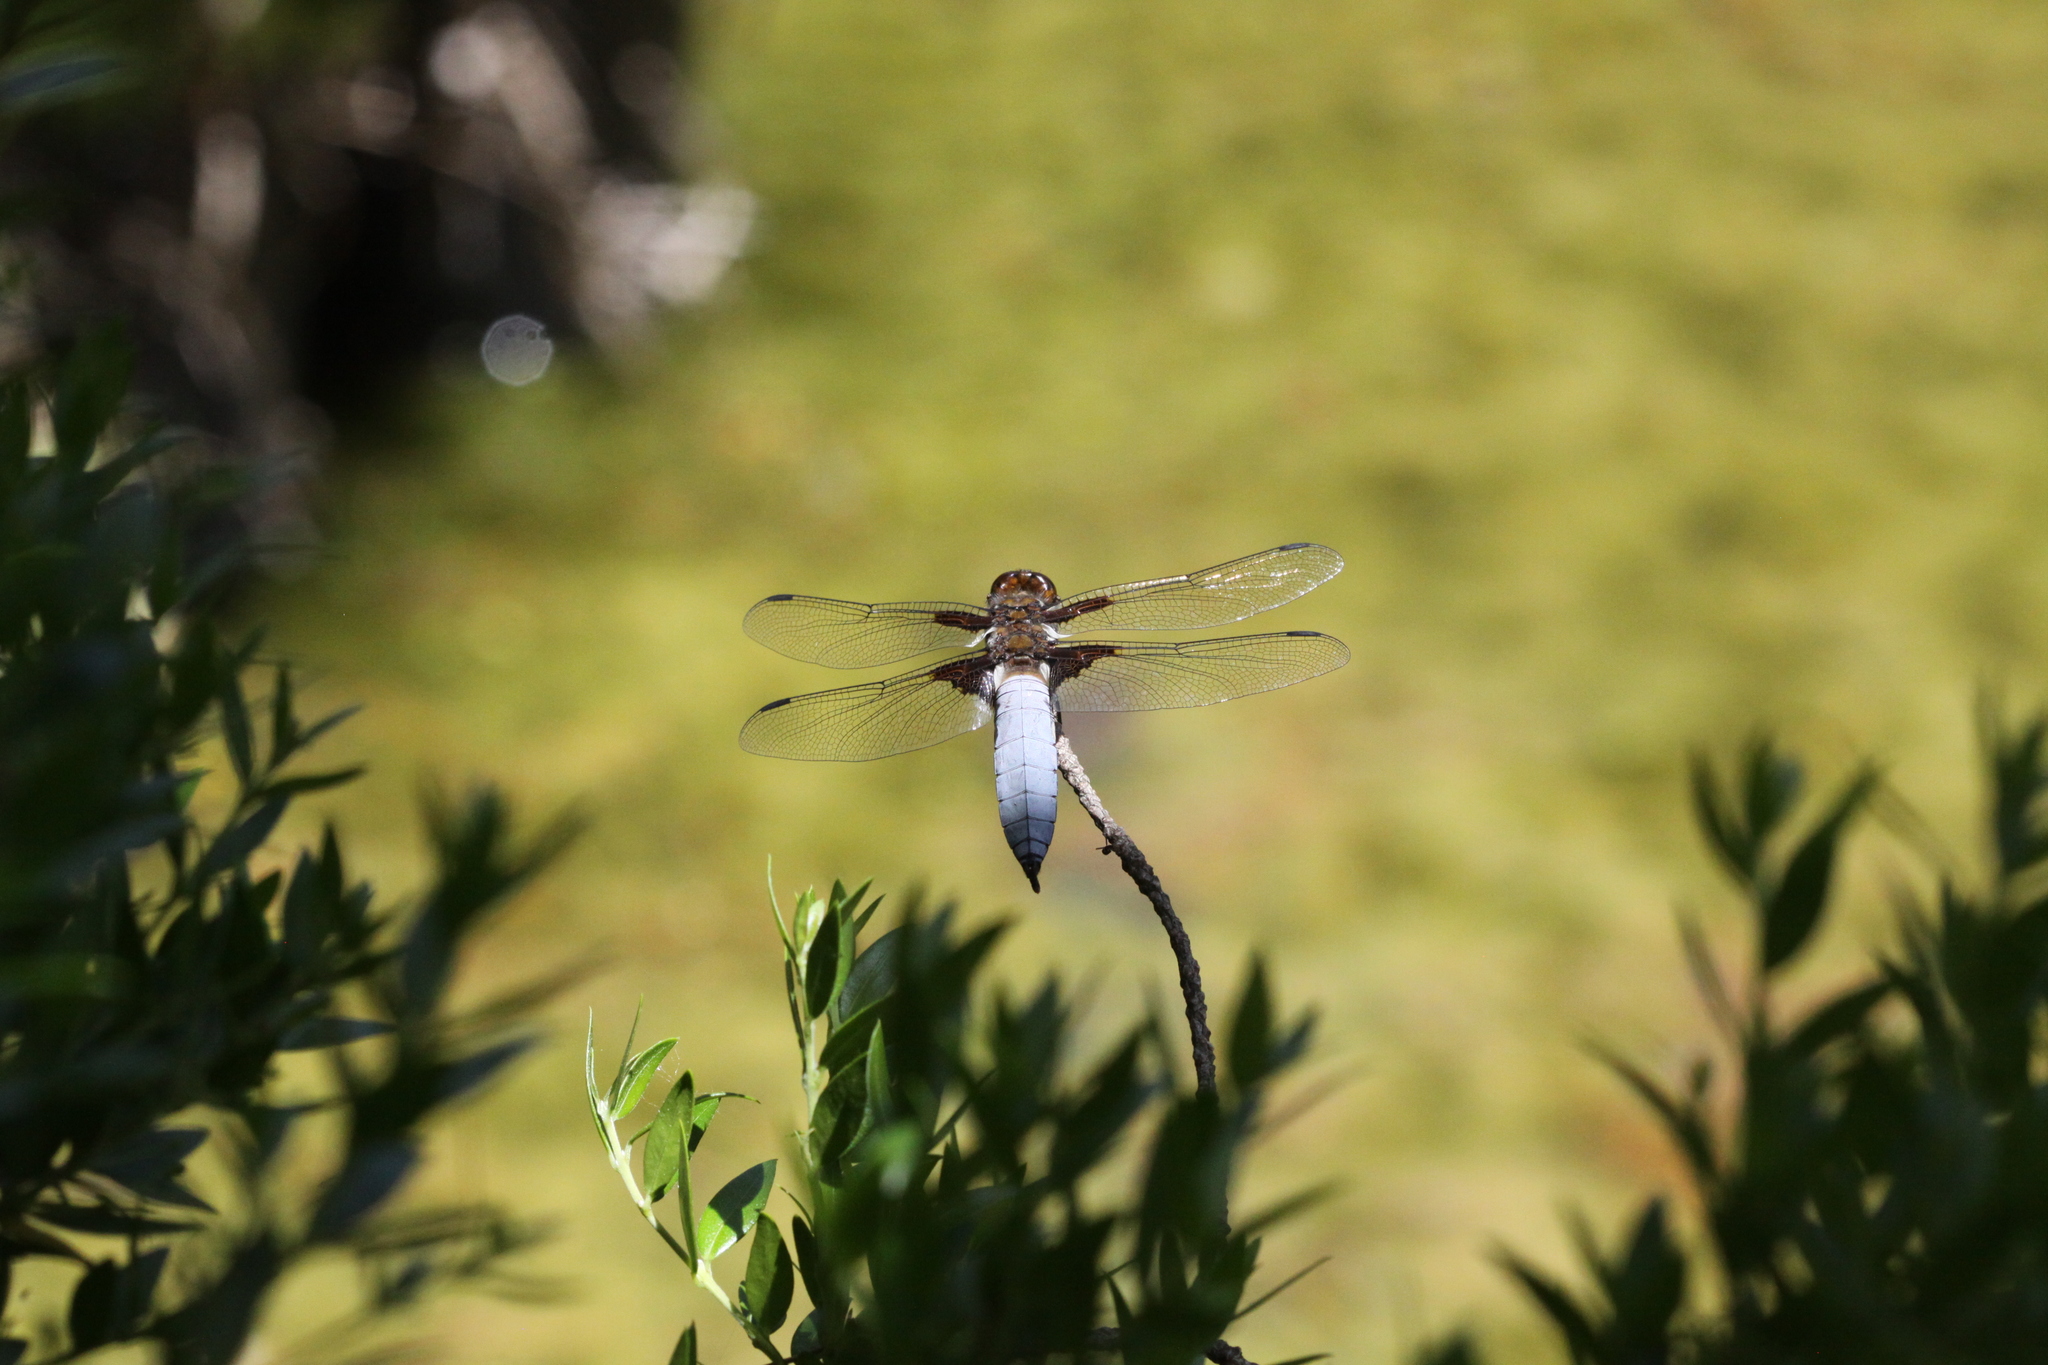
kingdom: Animalia
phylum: Arthropoda
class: Insecta
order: Odonata
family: Libellulidae
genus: Libellula
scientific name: Libellula depressa
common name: Broad-bodied chaser
